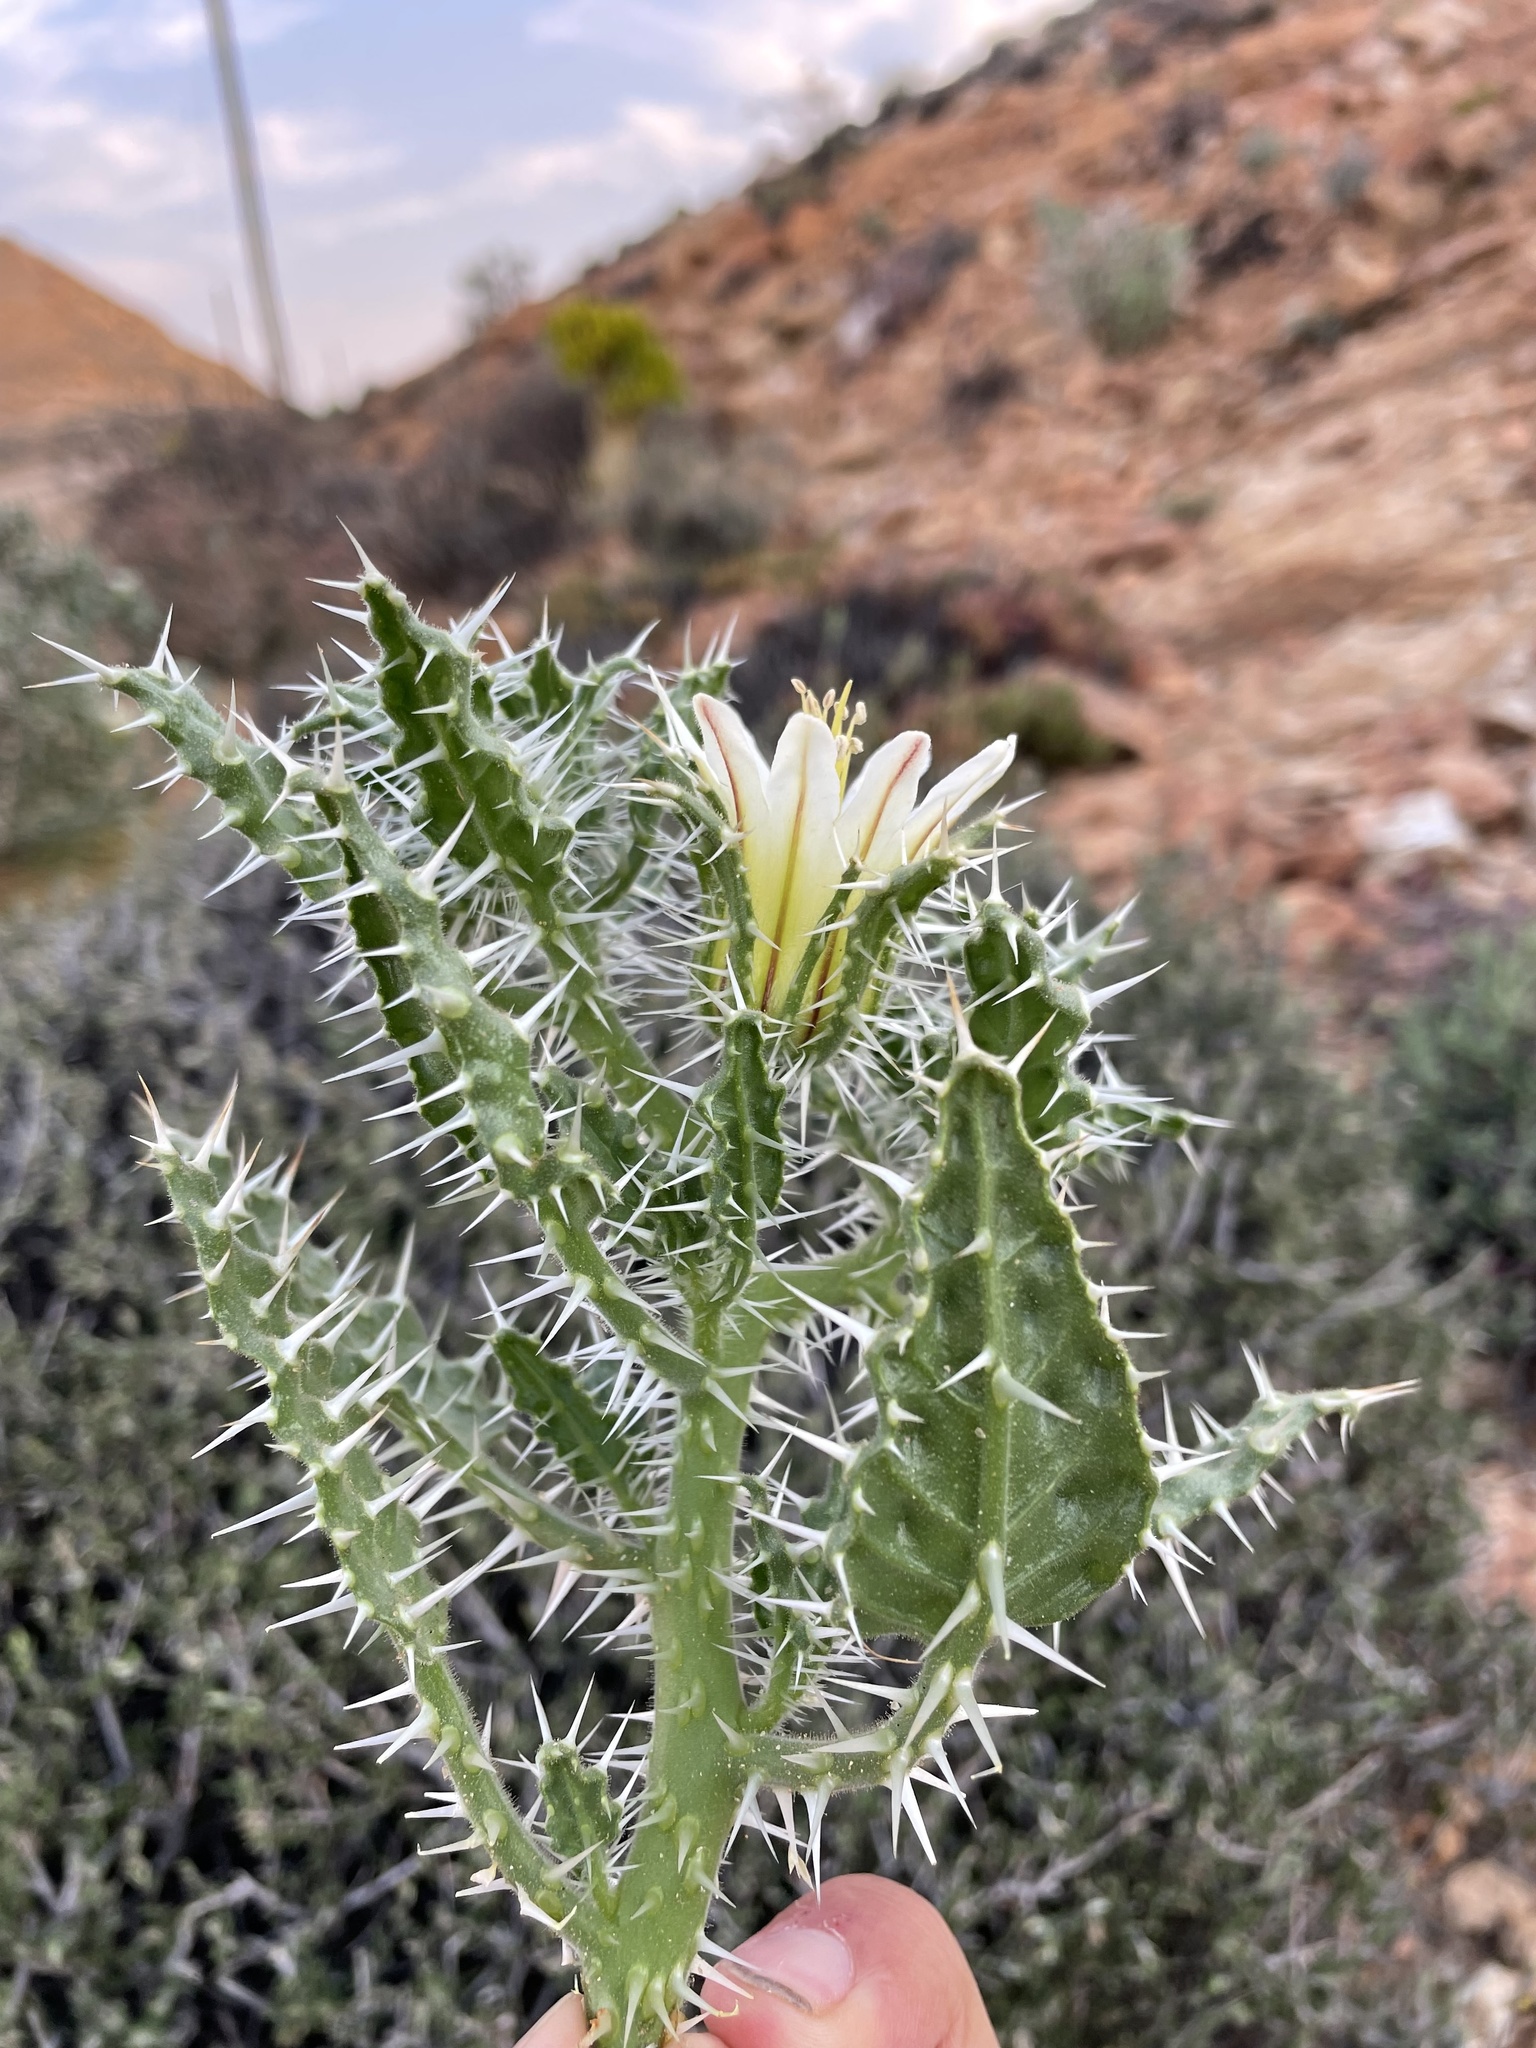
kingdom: Plantae
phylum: Tracheophyta
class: Magnoliopsida
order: Boraginales
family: Boraginaceae
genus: Codon
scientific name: Codon royenii
